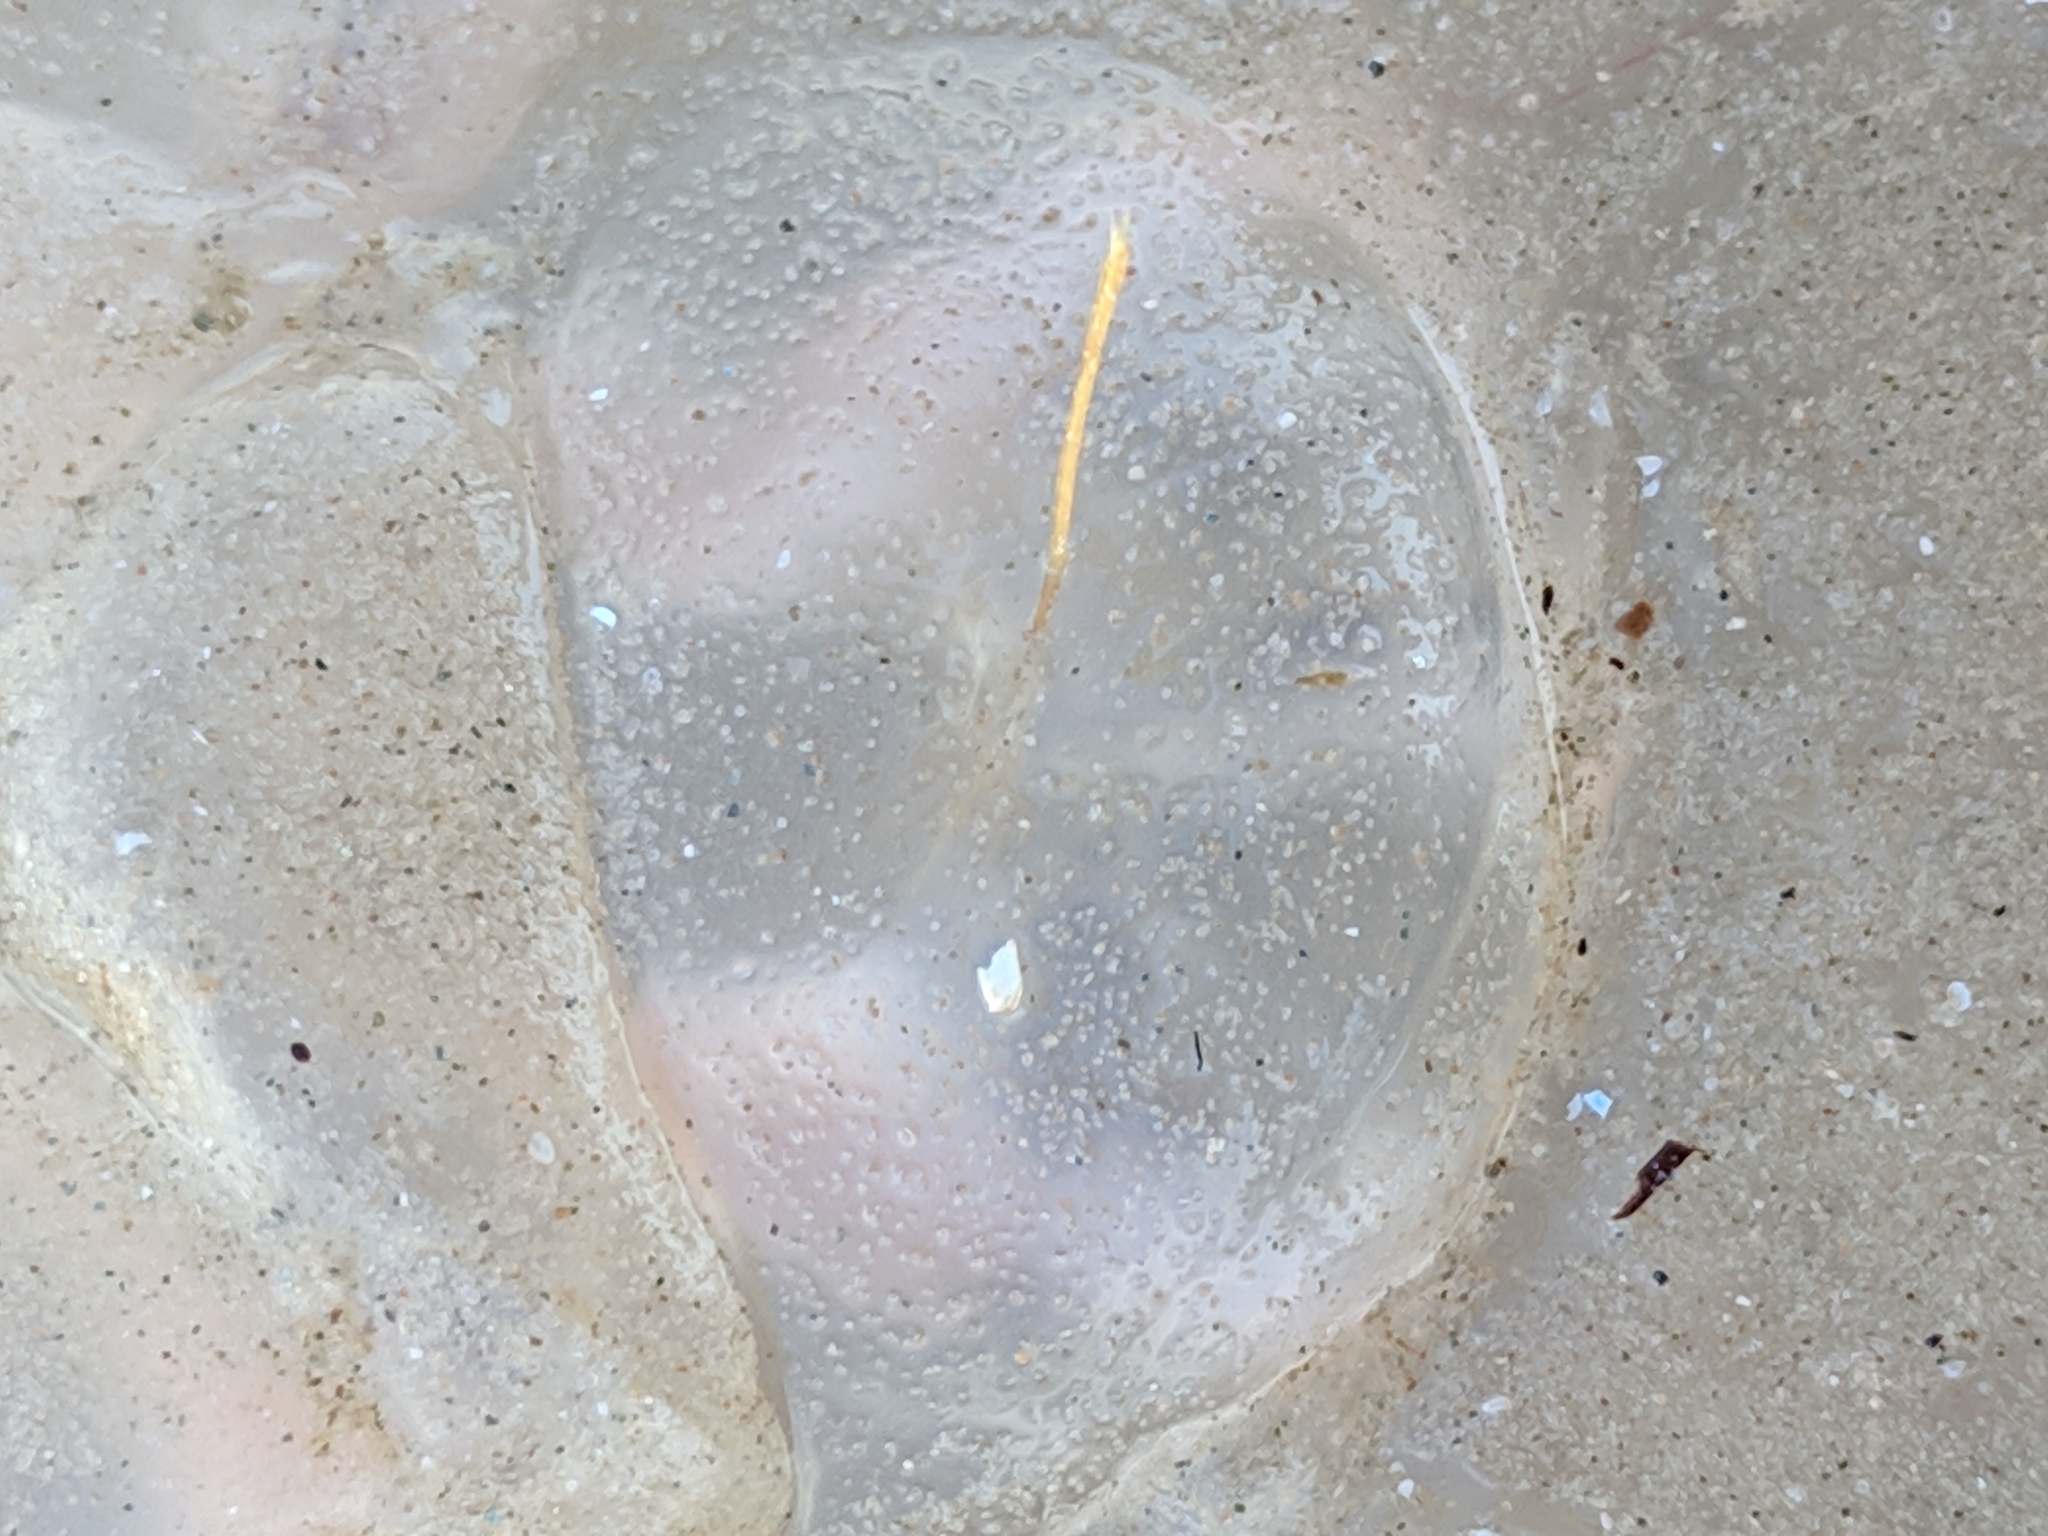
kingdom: Animalia
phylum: Cnidaria
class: Scyphozoa
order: Semaeostomeae
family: Ulmaridae
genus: Aurelia
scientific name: Aurelia marginalis
